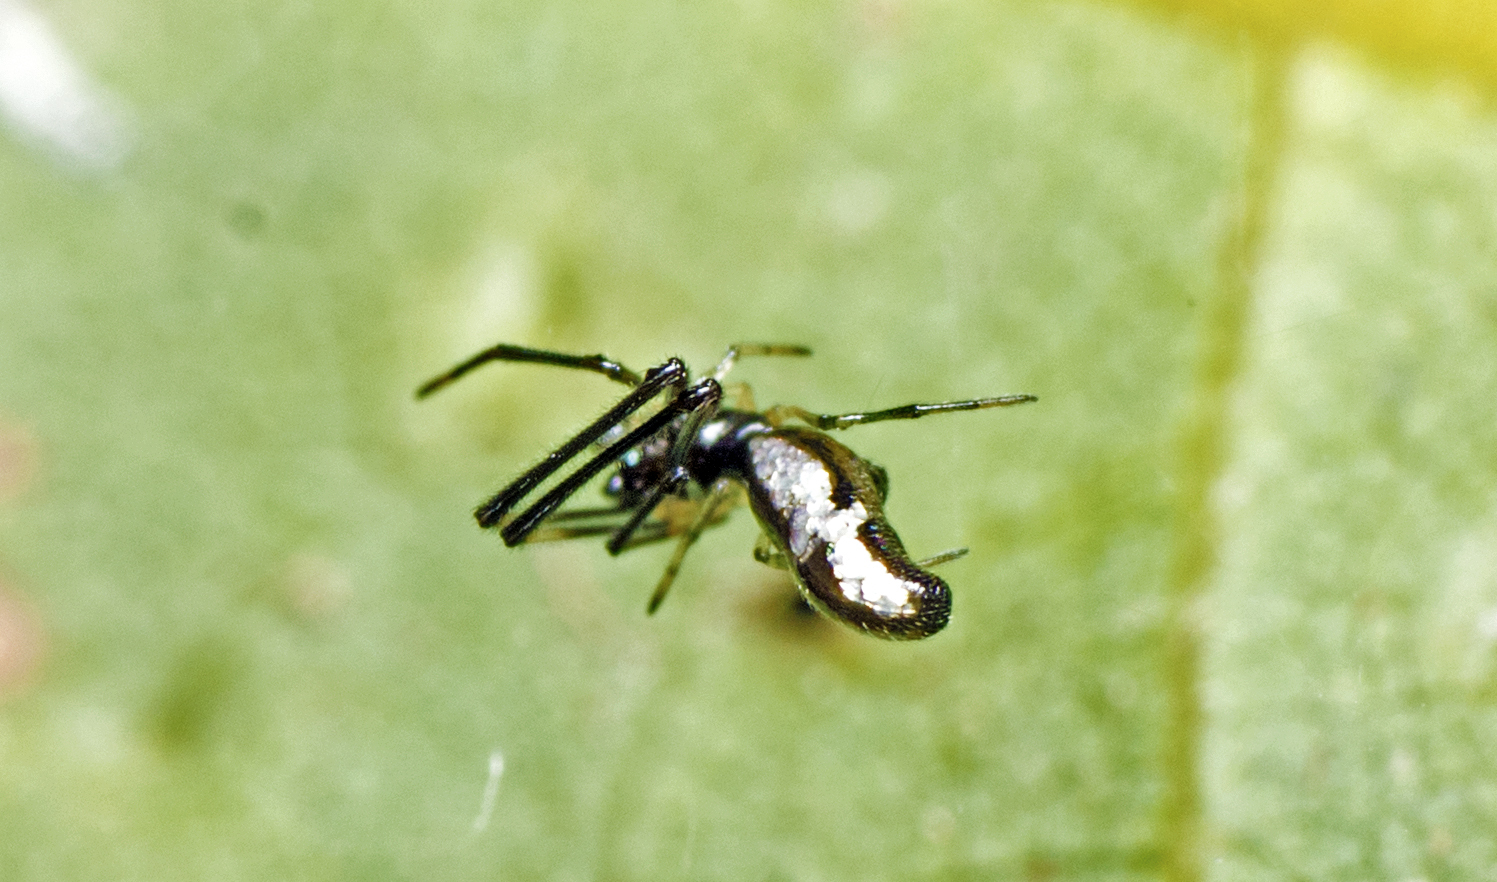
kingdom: Animalia
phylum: Arthropoda
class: Arachnida
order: Araneae
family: Theridiidae
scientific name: Theridiidae
